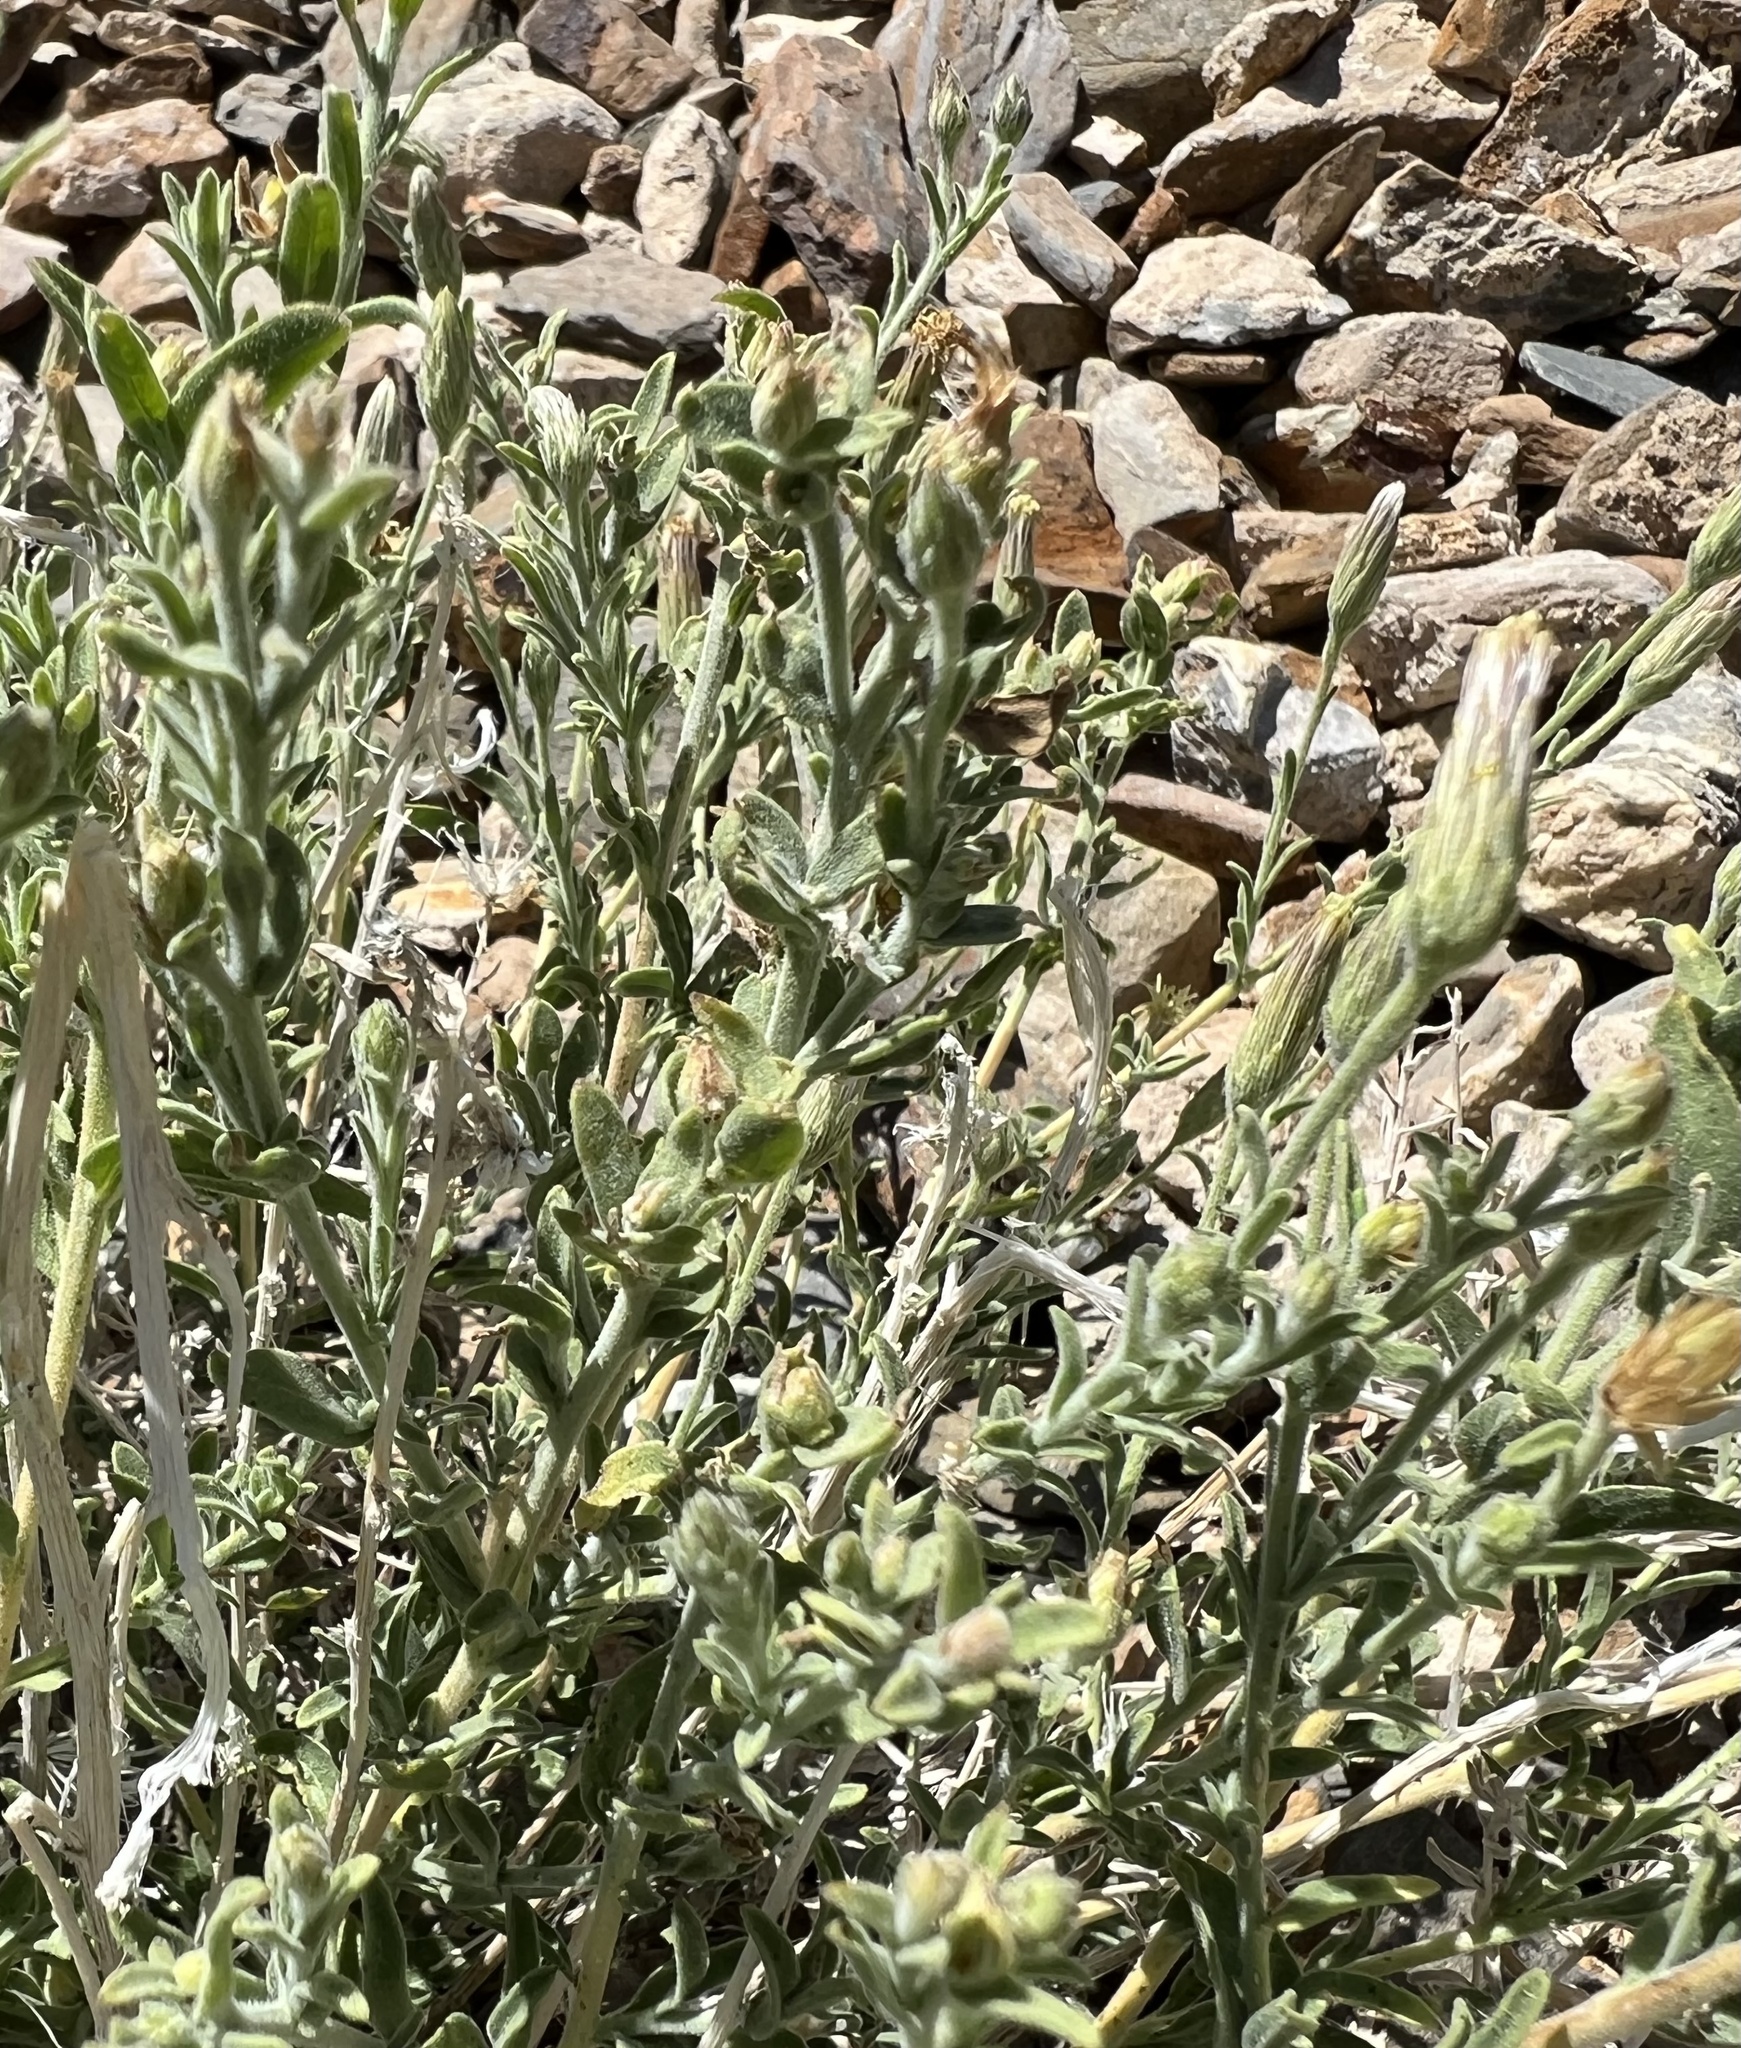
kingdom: Plantae
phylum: Tracheophyta
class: Magnoliopsida
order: Asterales
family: Asteraceae
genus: Brickellia
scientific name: Brickellia oblongifolia
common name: Mojave brickellbush
